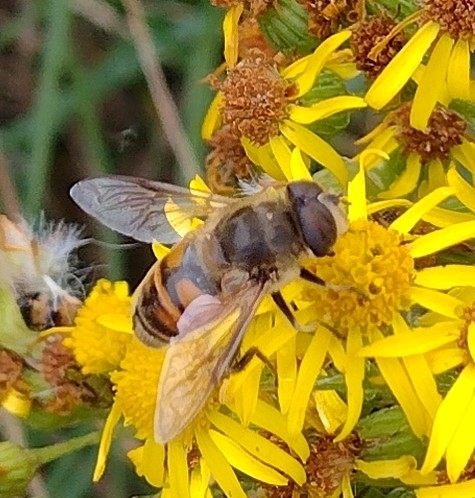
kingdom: Animalia
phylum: Arthropoda
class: Insecta
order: Diptera
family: Syrphidae
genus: Eristalis
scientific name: Eristalis tenax
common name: Drone fly
